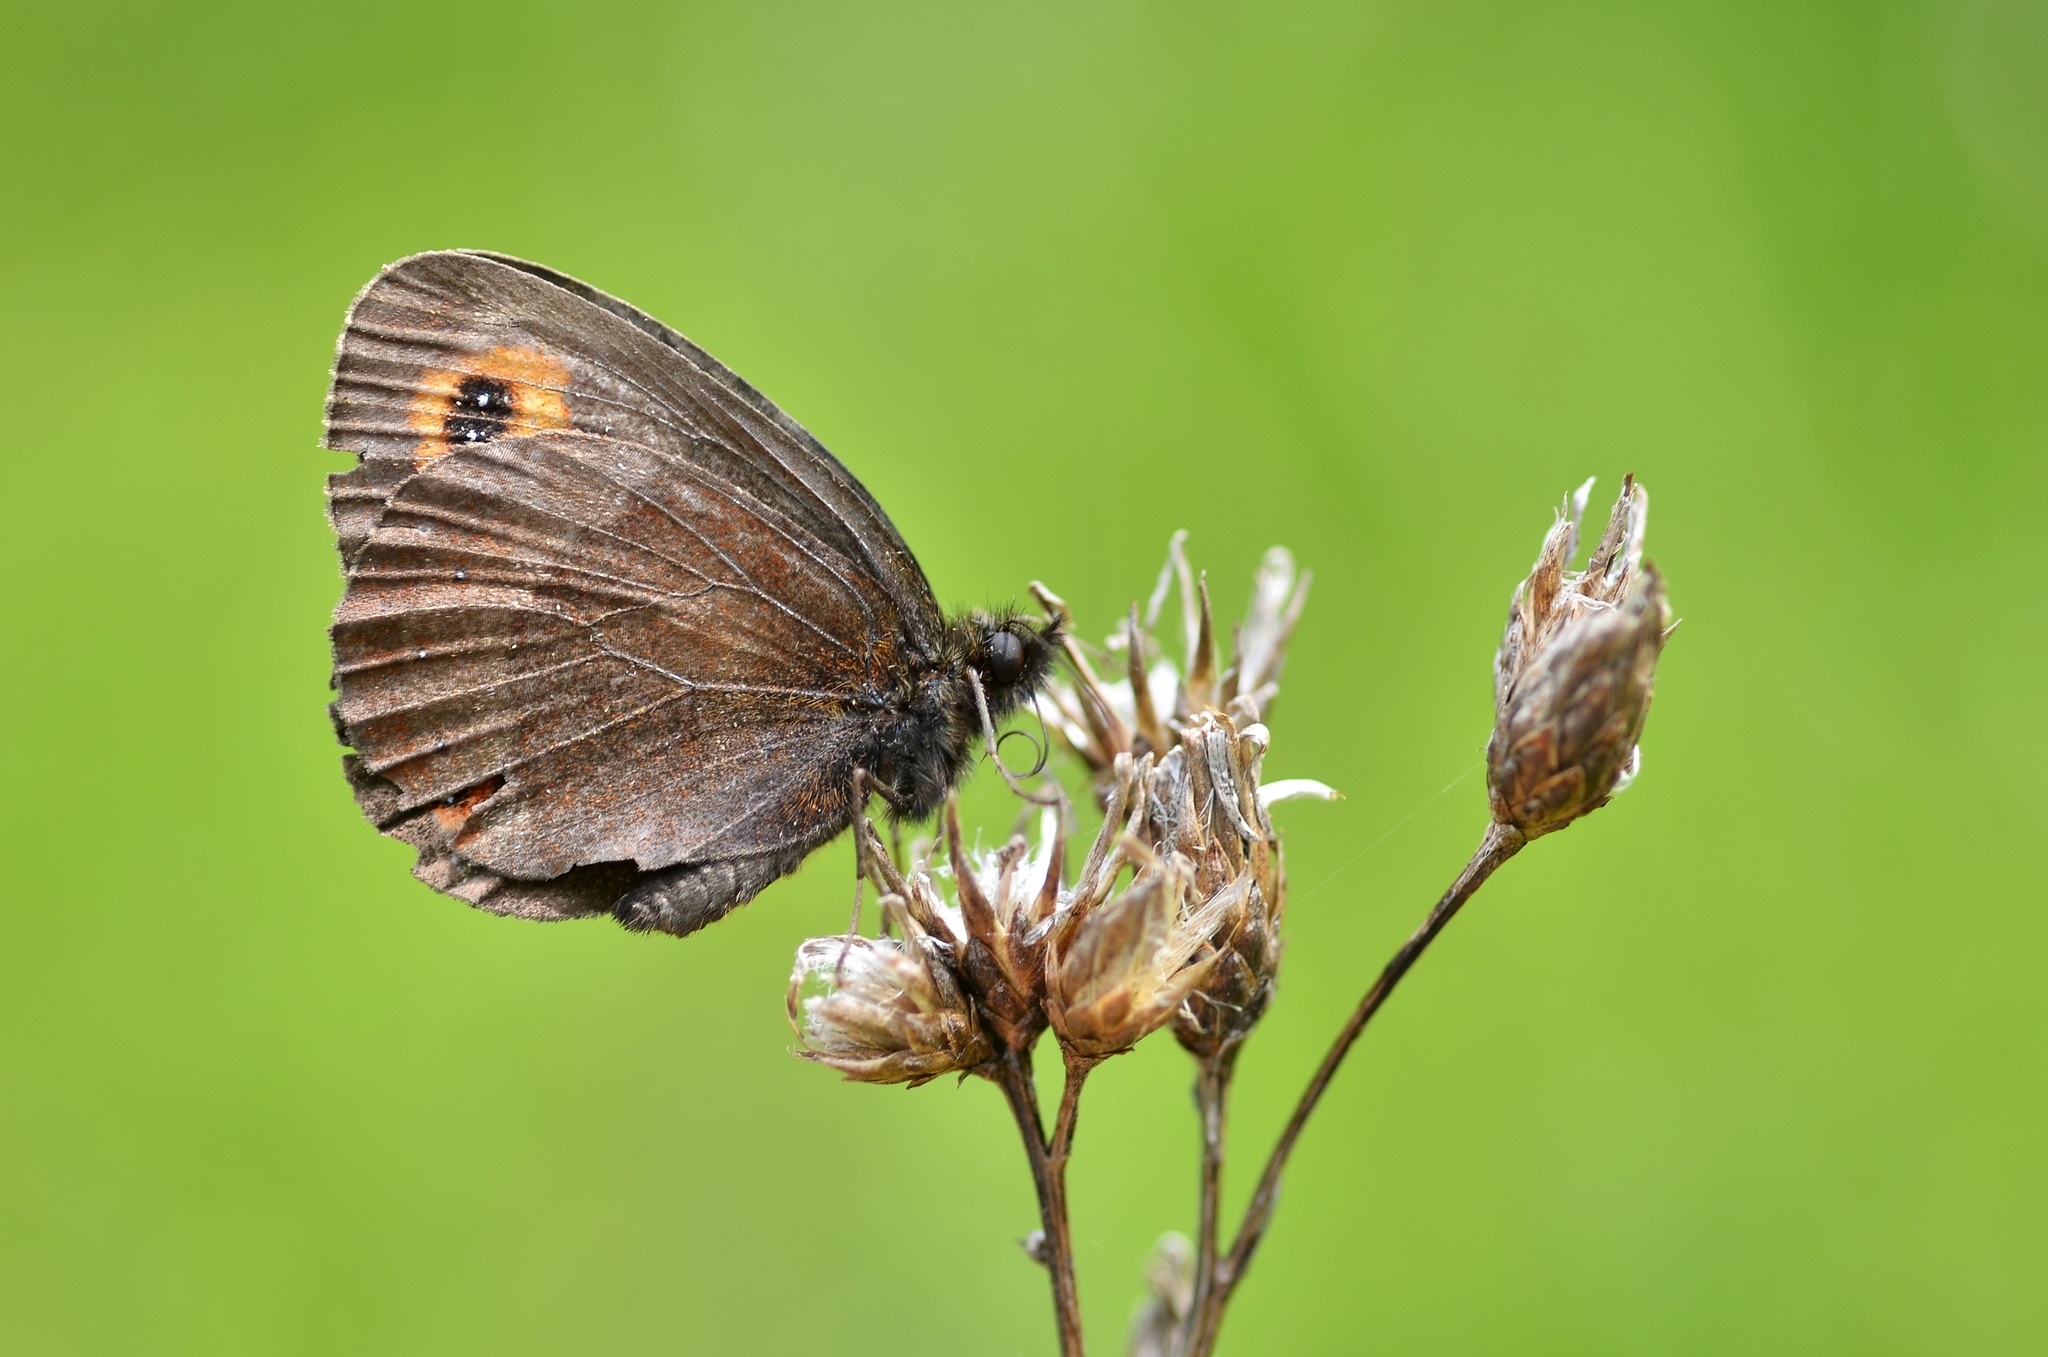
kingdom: Animalia
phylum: Arthropoda
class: Insecta
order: Lepidoptera
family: Nymphalidae
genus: Erebia
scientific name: Erebia aethiops
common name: Scotch argus
